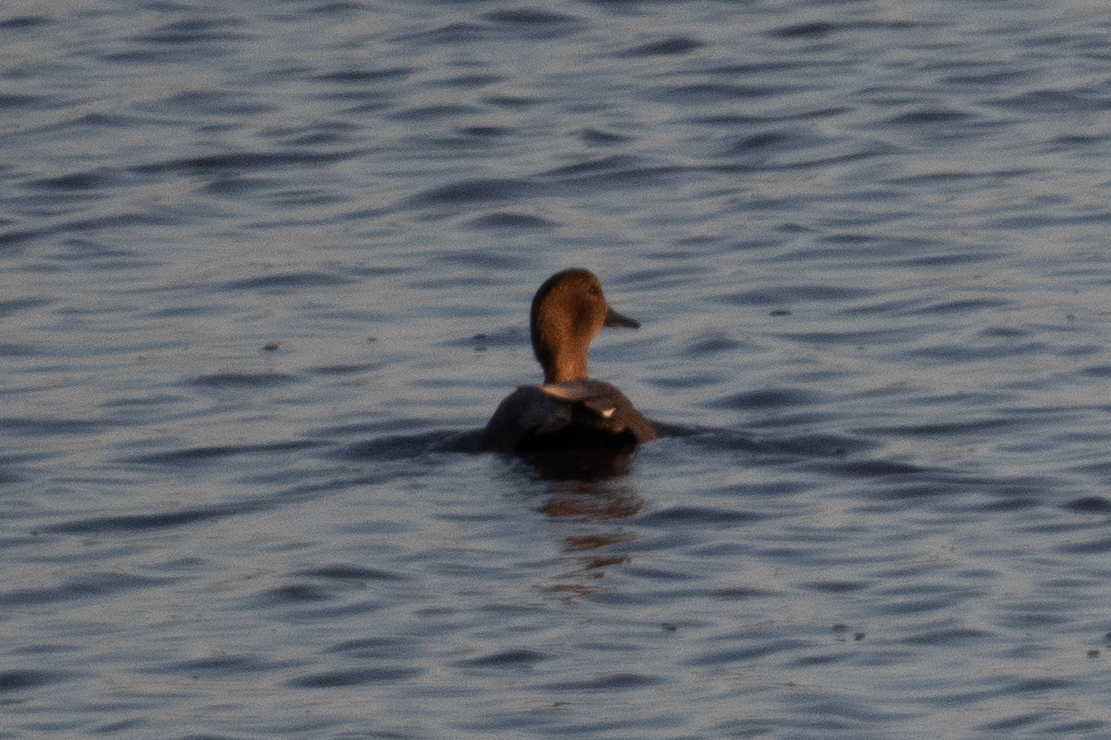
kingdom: Animalia
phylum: Chordata
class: Aves
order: Anseriformes
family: Anatidae
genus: Mareca
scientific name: Mareca strepera
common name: Gadwall
